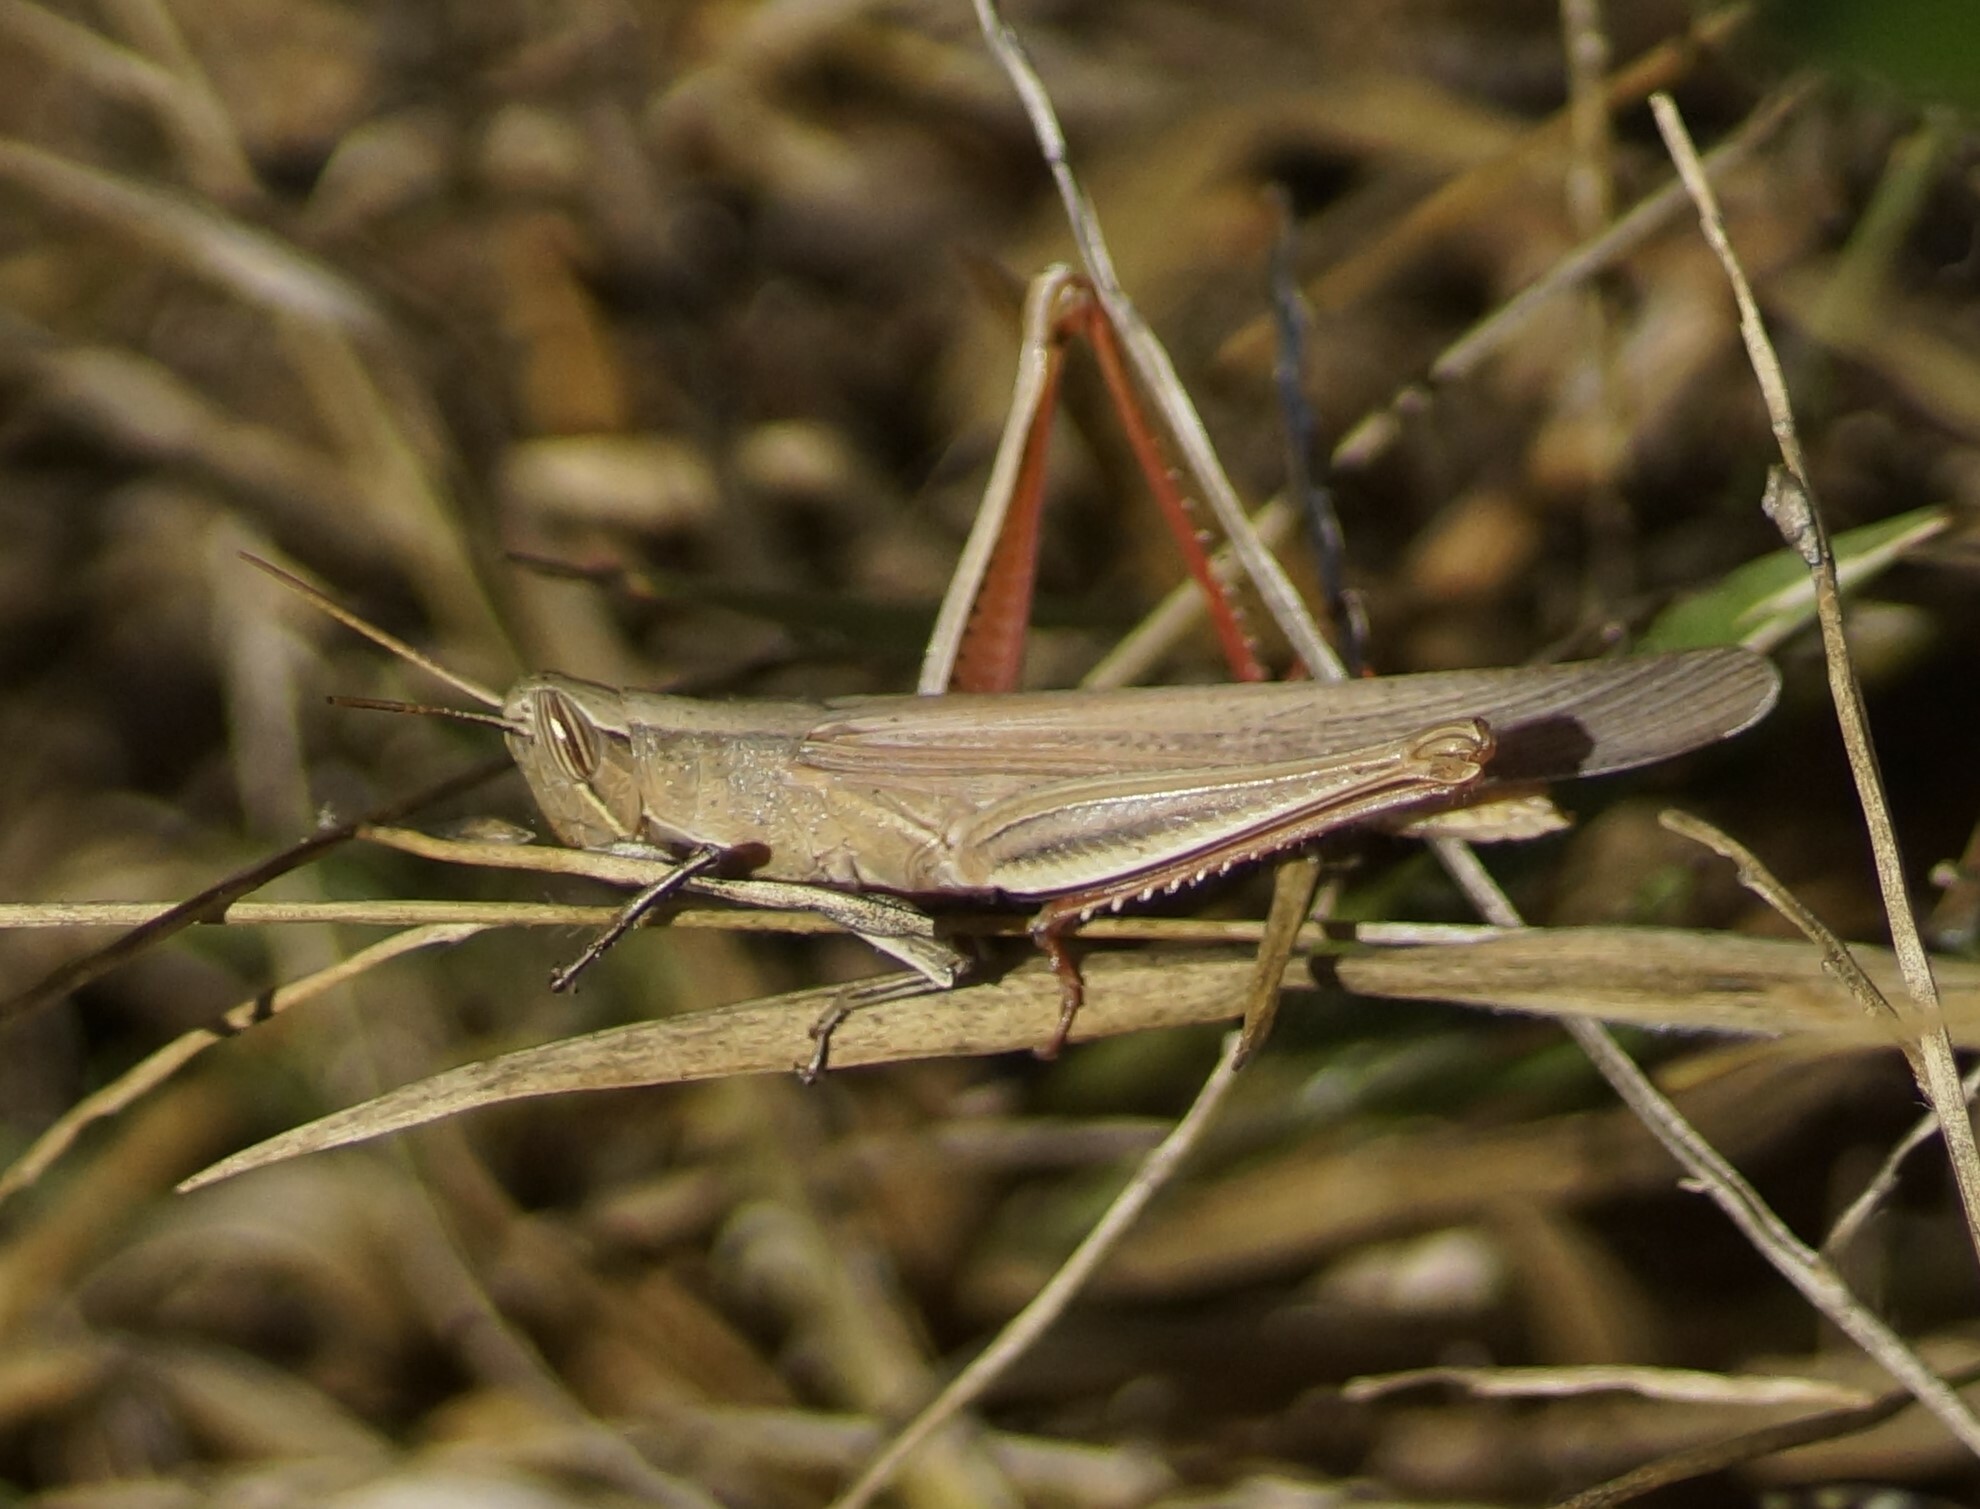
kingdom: Animalia
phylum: Arthropoda
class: Insecta
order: Orthoptera
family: Acrididae
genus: Stenocatantops
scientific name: Stenocatantops vitripennis
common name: Light-brown sharptail
